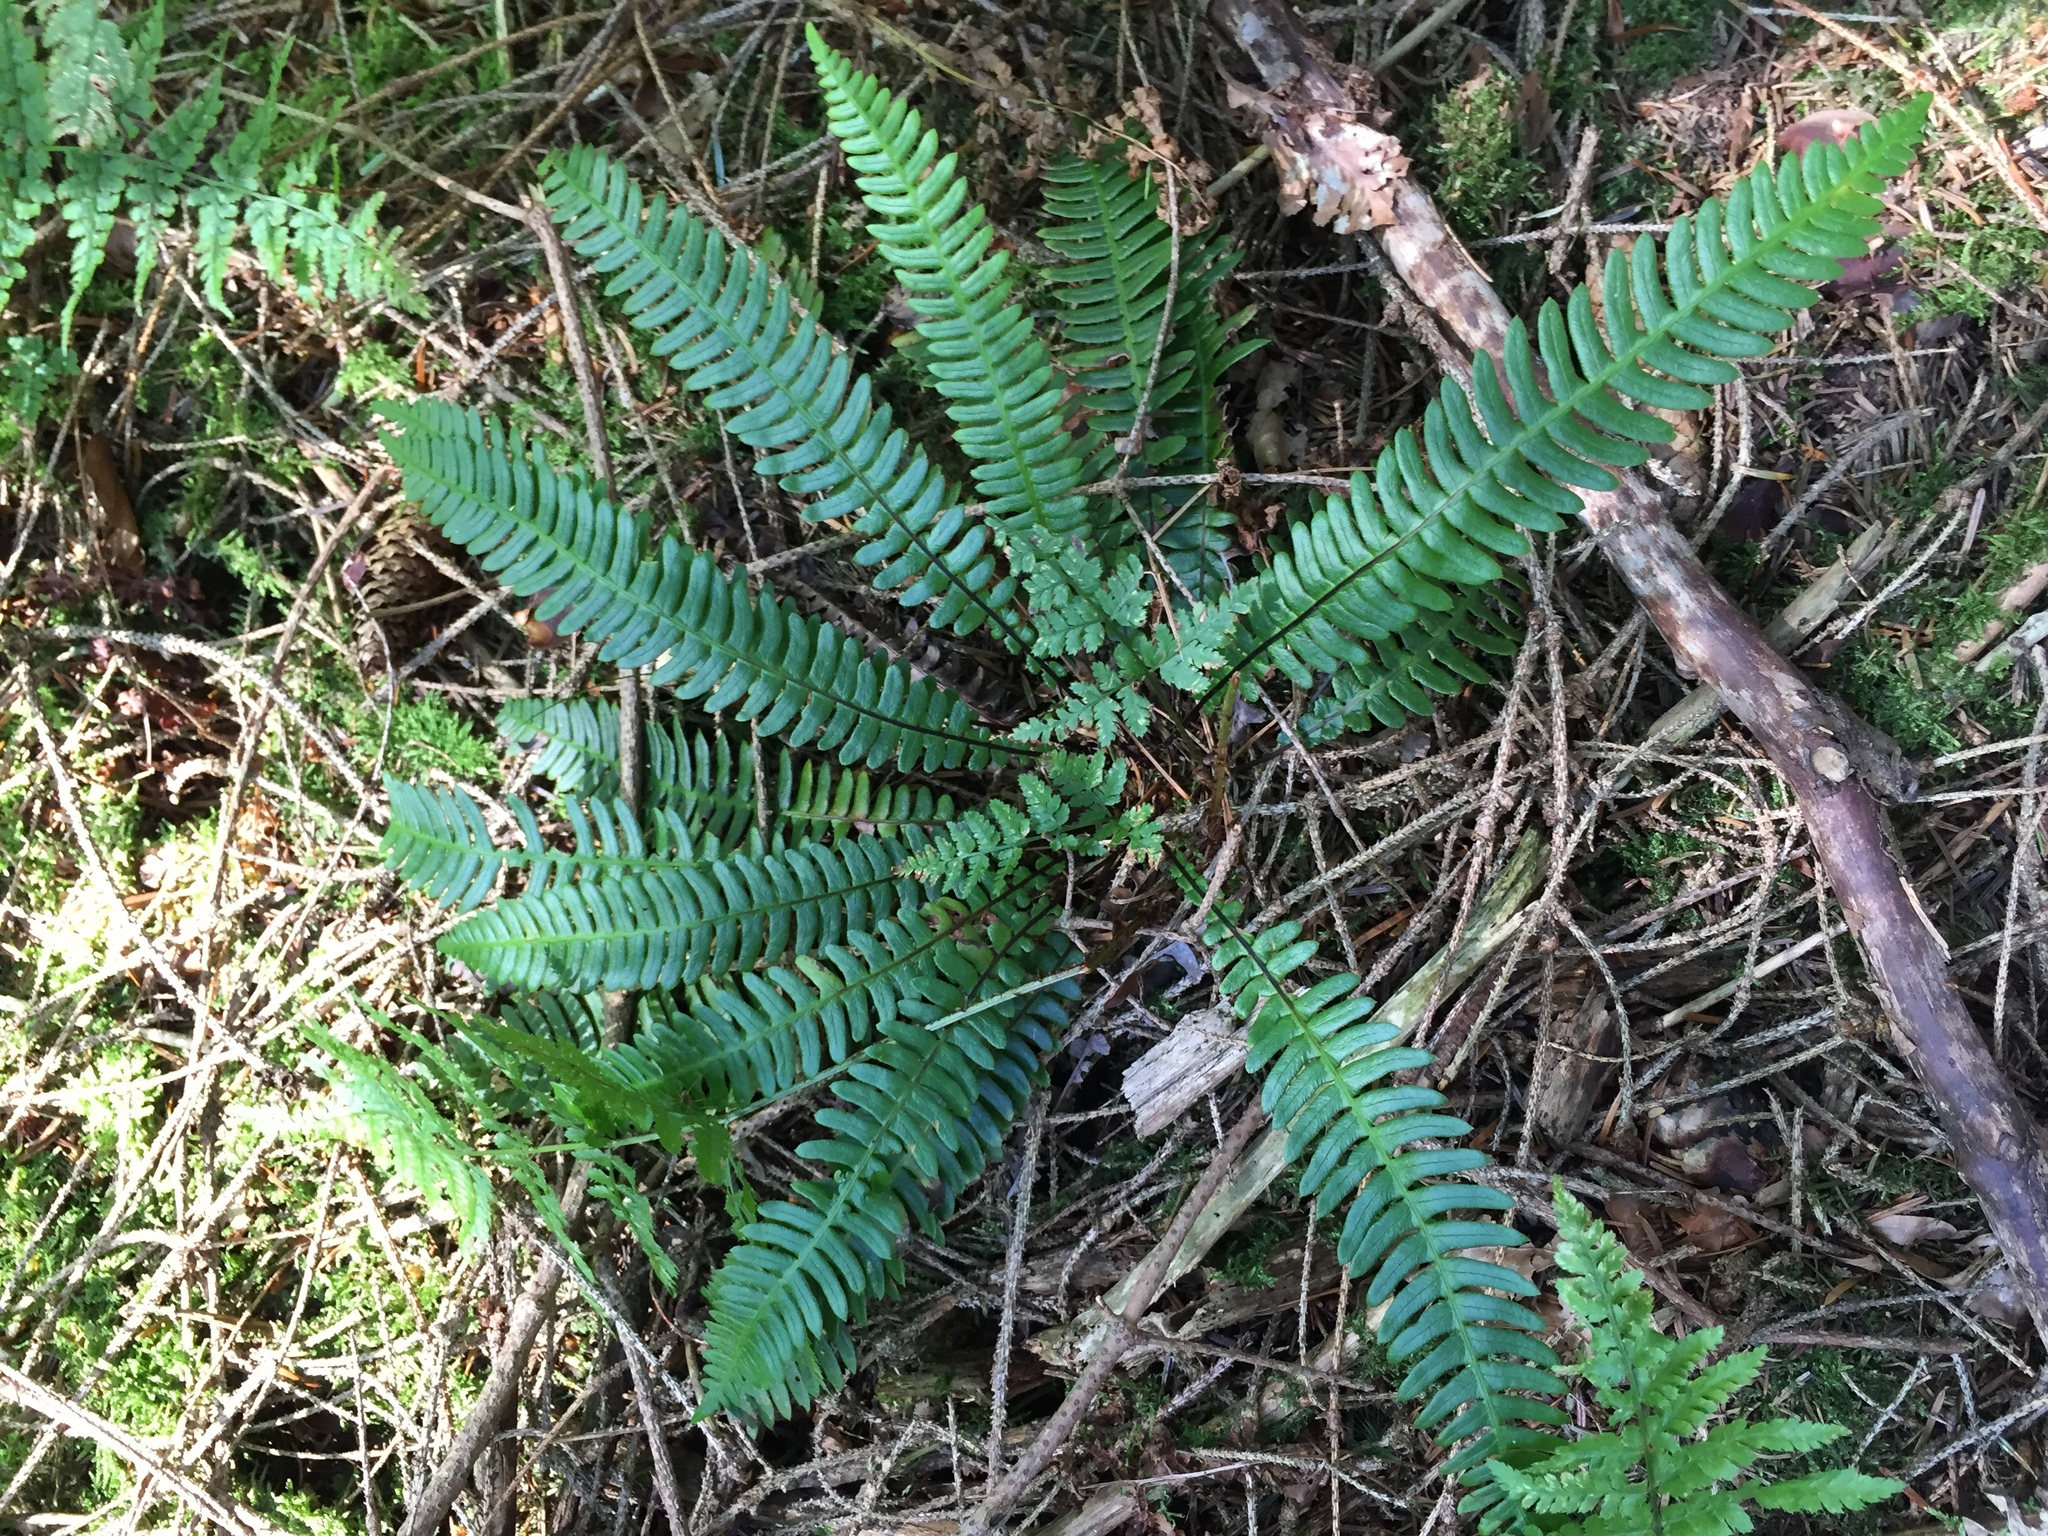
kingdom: Plantae
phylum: Tracheophyta
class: Polypodiopsida
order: Polypodiales
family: Blechnaceae
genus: Struthiopteris
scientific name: Struthiopteris spicant
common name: Deer fern
